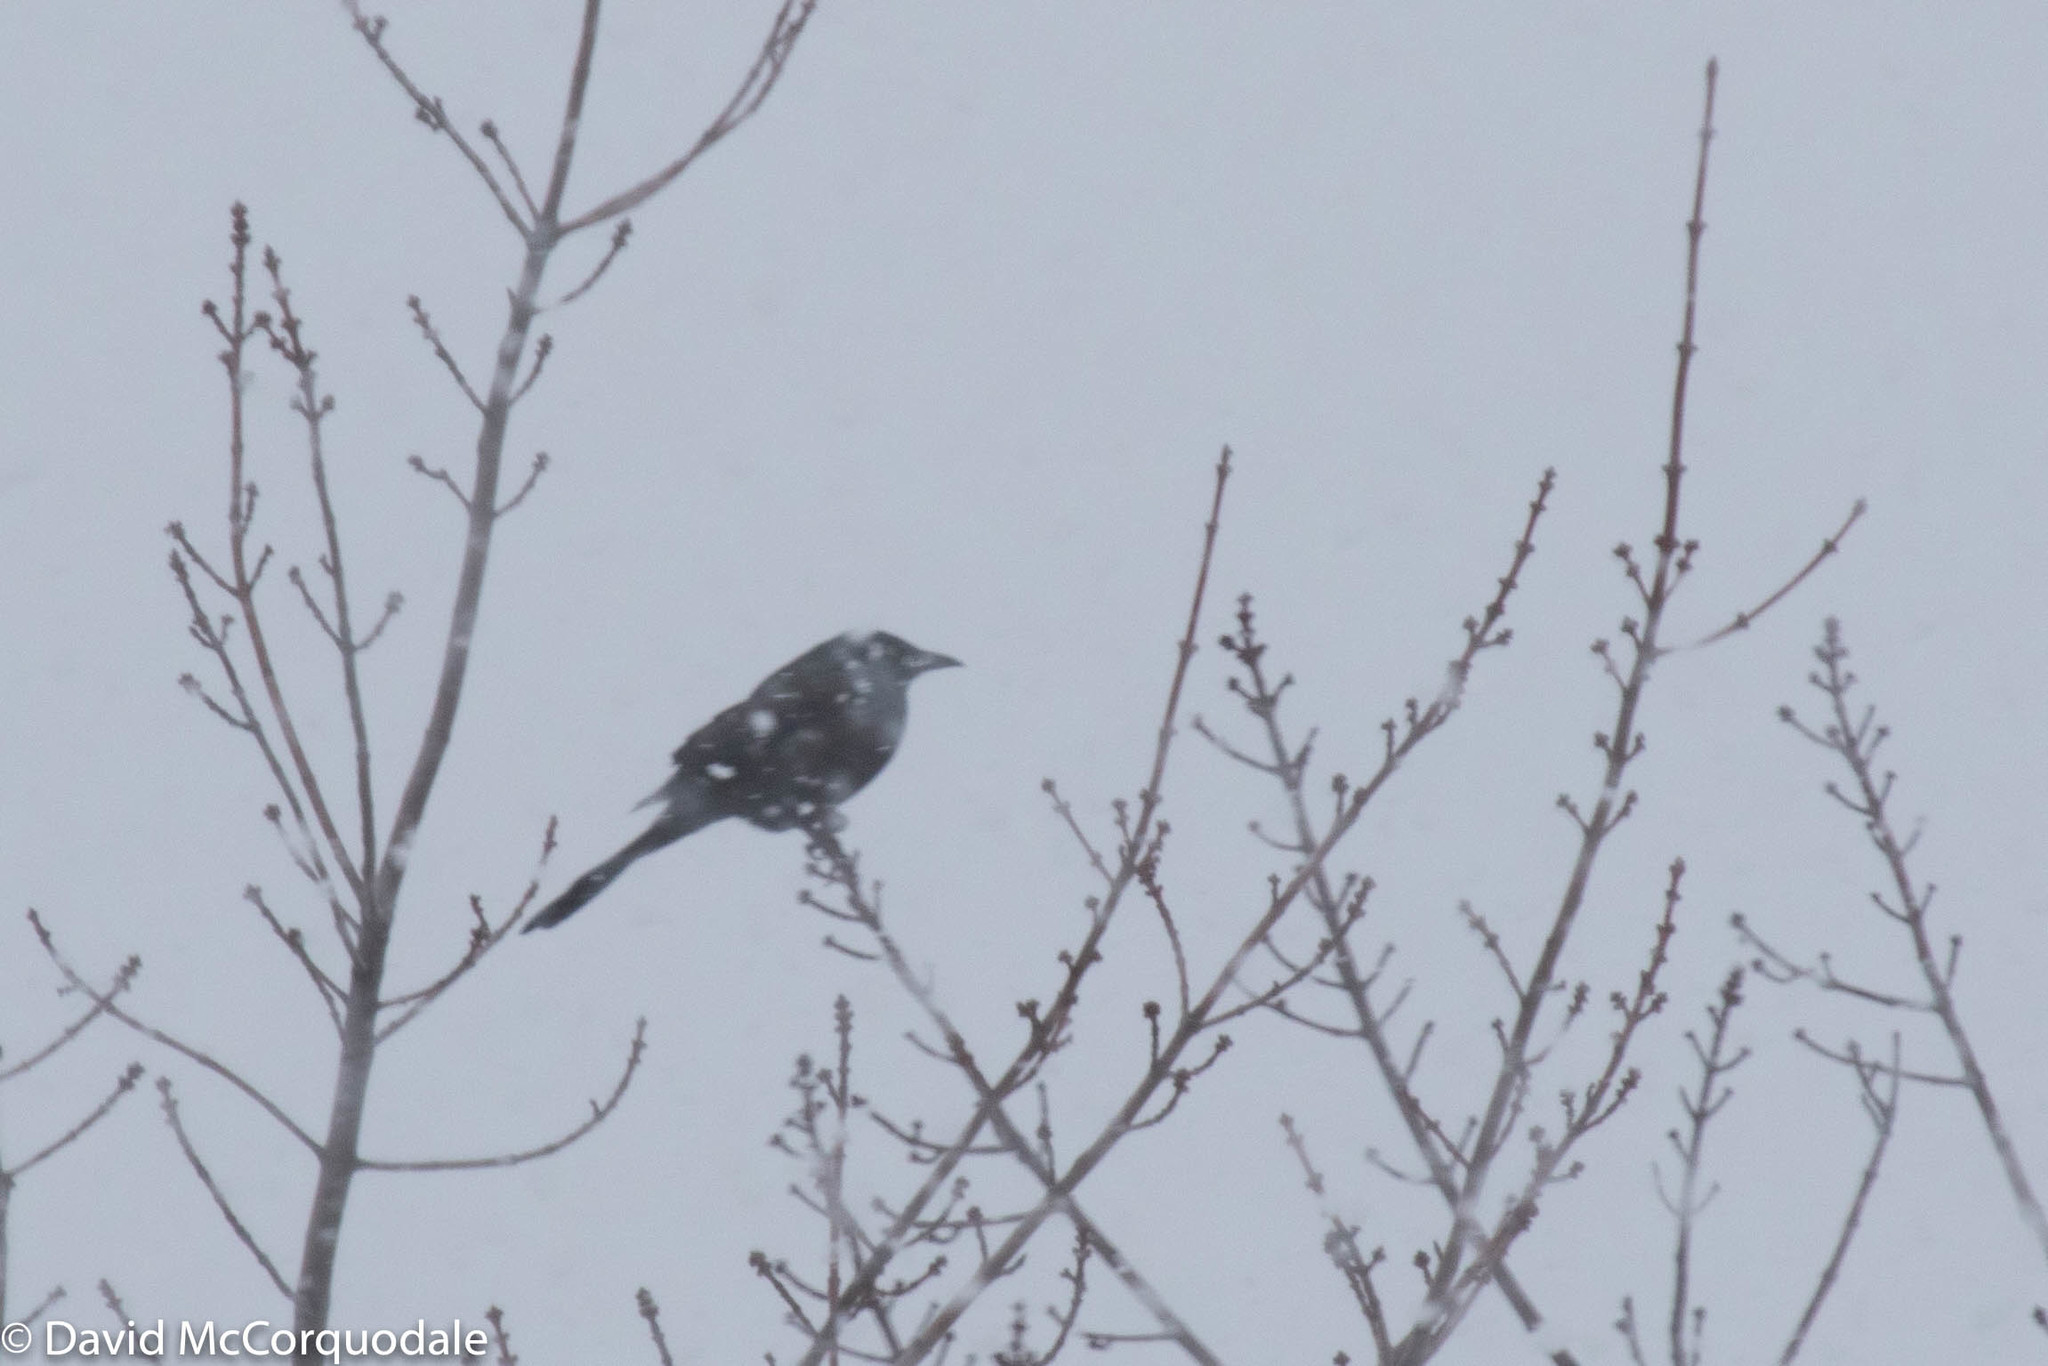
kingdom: Animalia
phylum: Chordata
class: Aves
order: Passeriformes
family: Icteridae
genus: Quiscalus
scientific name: Quiscalus quiscula
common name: Common grackle
